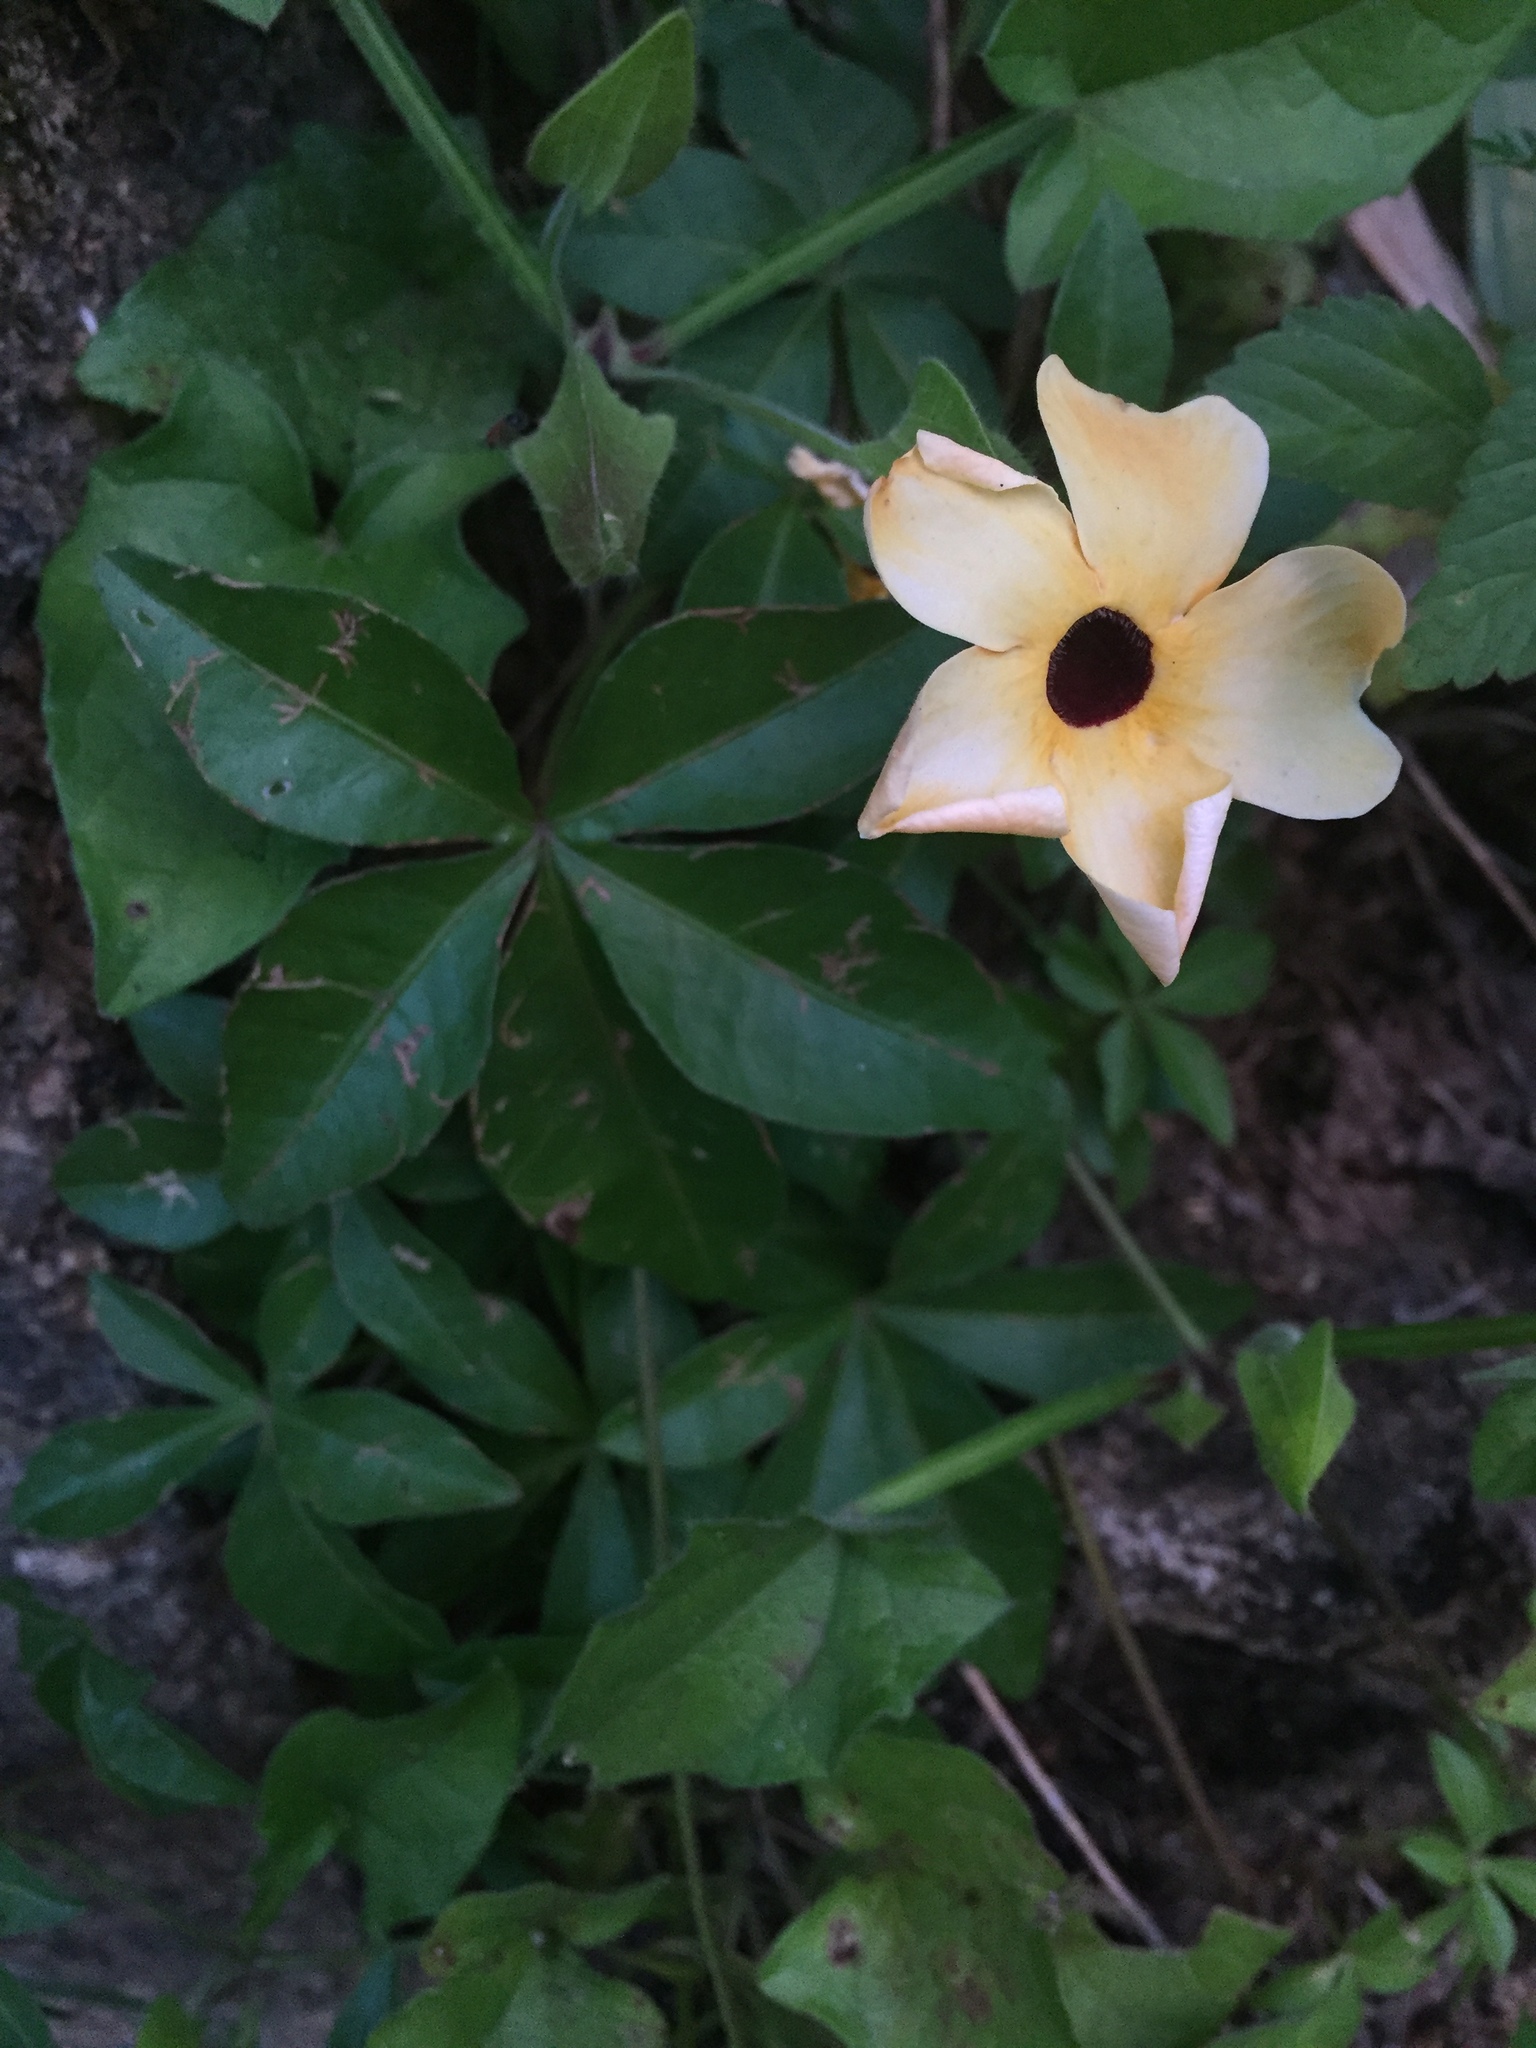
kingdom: Plantae
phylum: Tracheophyta
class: Magnoliopsida
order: Lamiales
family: Acanthaceae
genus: Thunbergia
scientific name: Thunbergia alata
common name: Blackeyed susan vine
